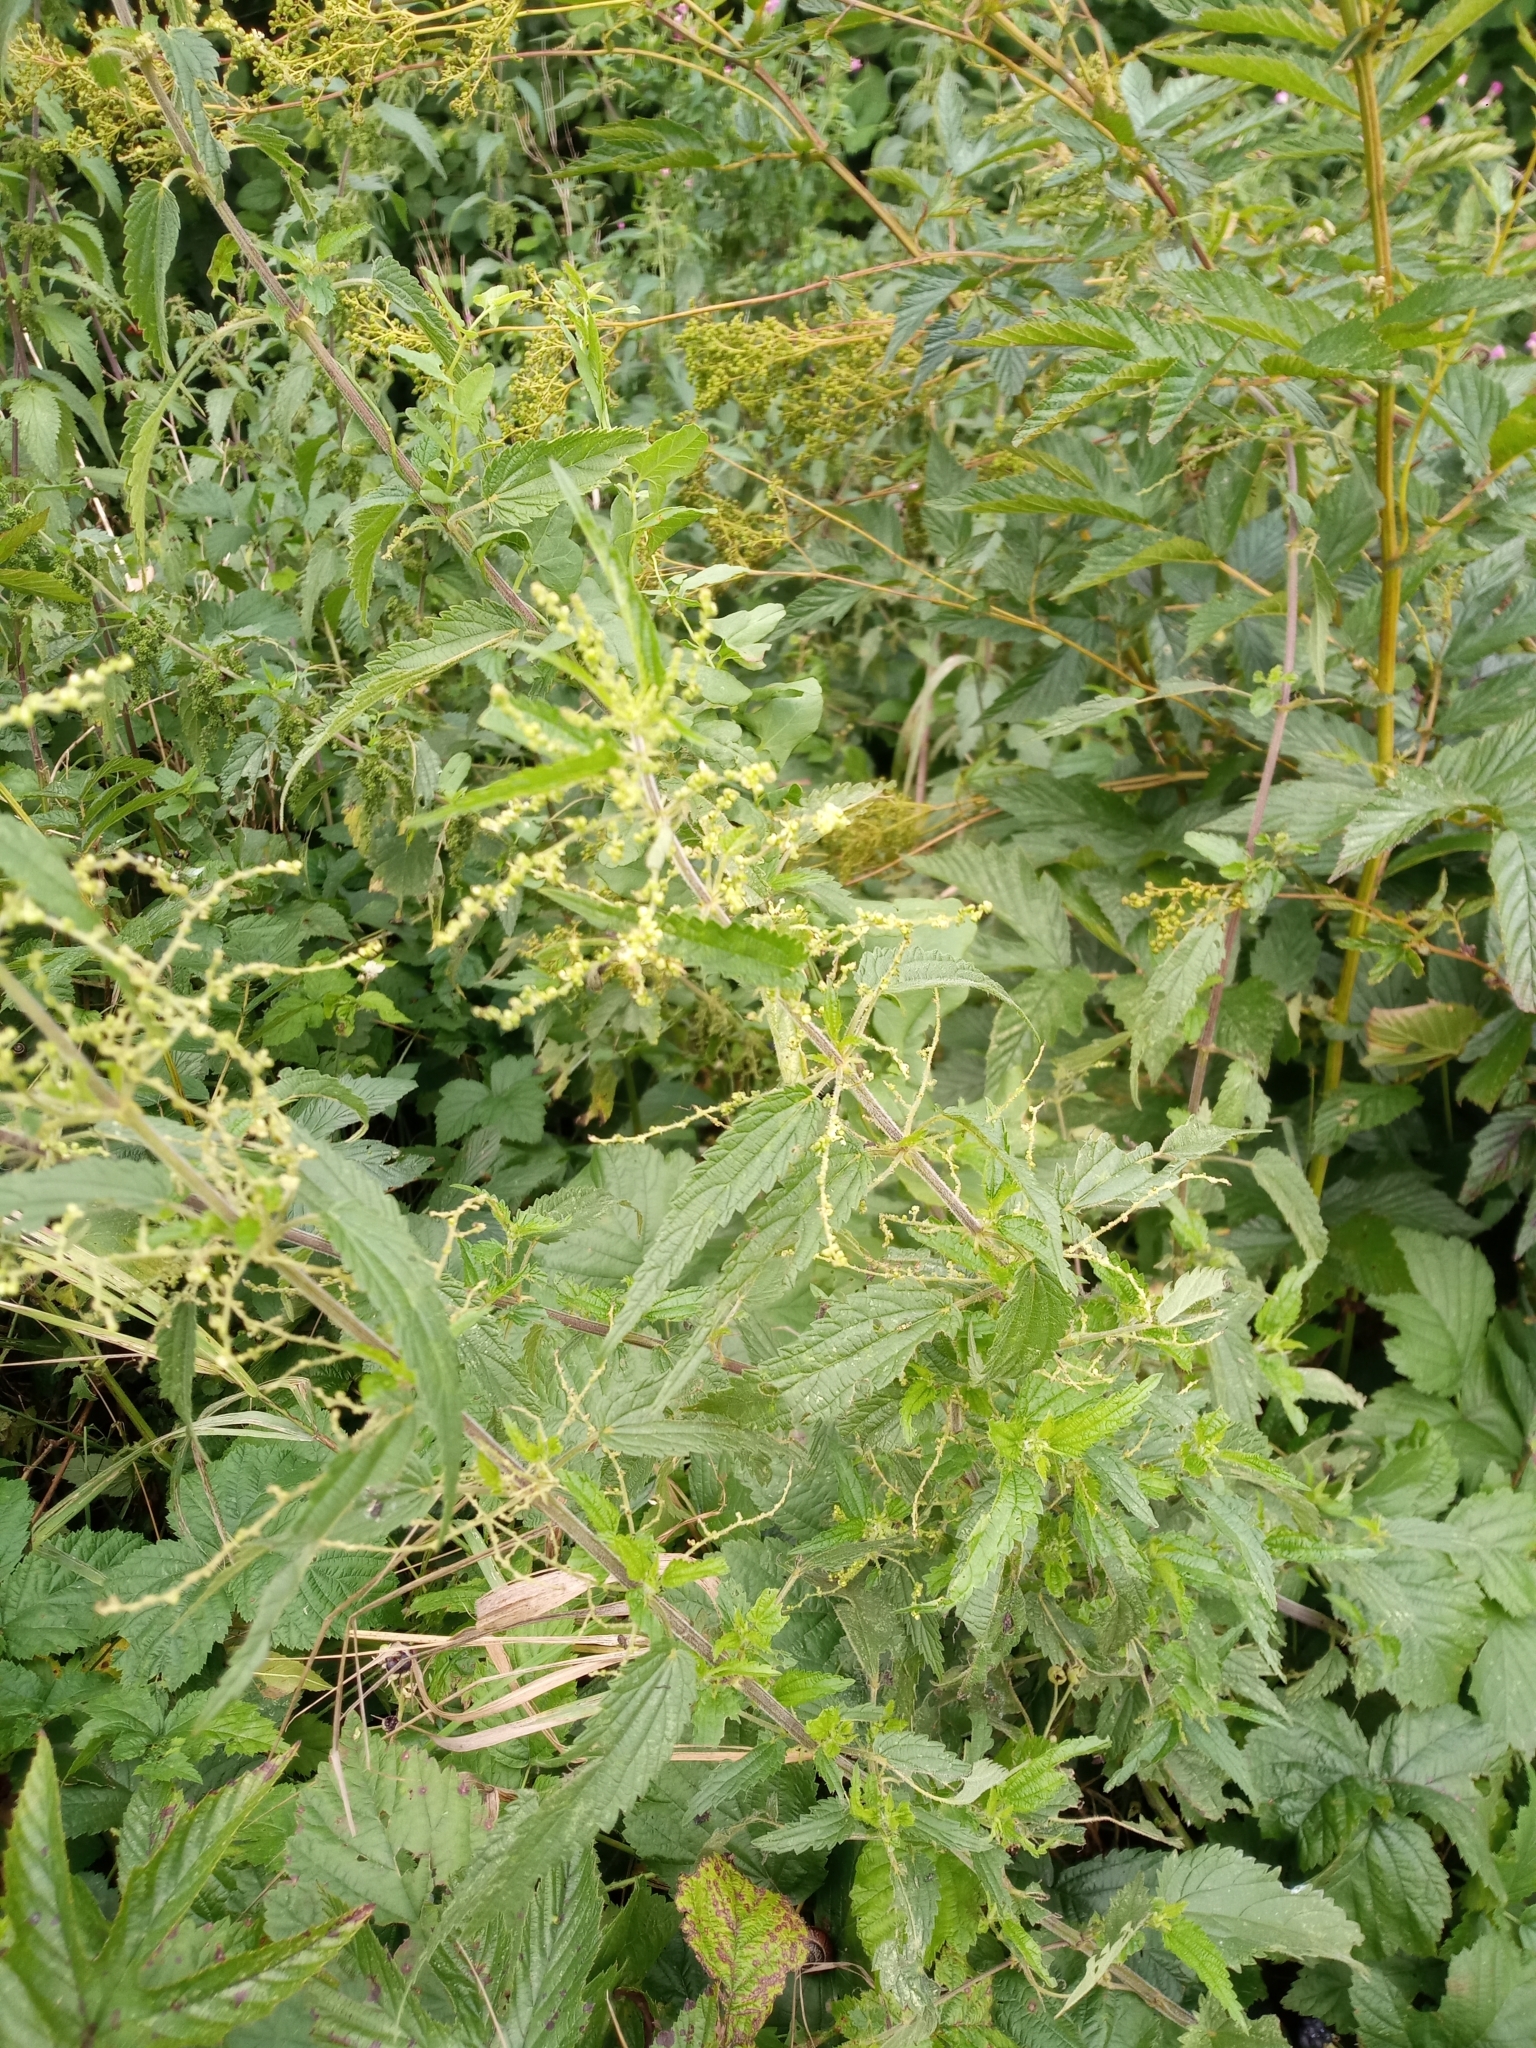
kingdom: Plantae
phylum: Tracheophyta
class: Magnoliopsida
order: Rosales
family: Urticaceae
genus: Urtica
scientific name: Urtica dioica
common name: Common nettle
